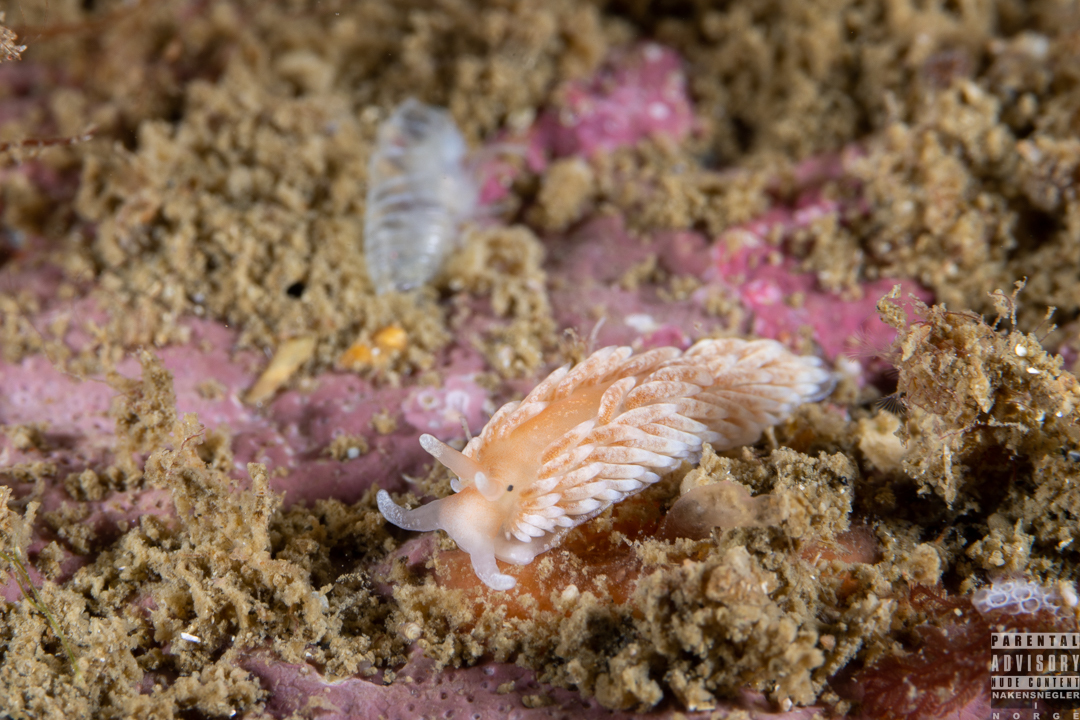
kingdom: Animalia
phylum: Mollusca
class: Gastropoda
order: Nudibranchia
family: Aeolidiidae
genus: Aeolidiella
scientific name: Aeolidiella glauca
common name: Orange-brown aeolid
